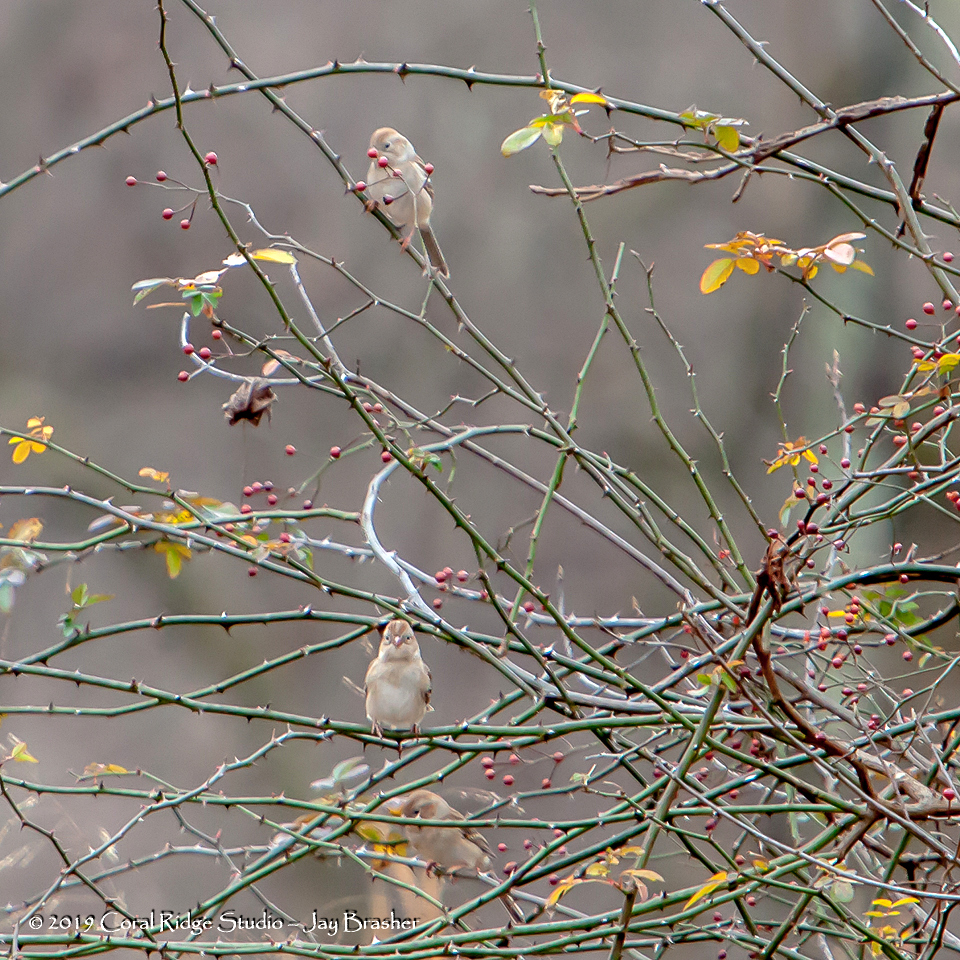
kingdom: Animalia
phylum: Chordata
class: Aves
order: Passeriformes
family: Passerellidae
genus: Spizella
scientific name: Spizella pusilla
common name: Field sparrow
